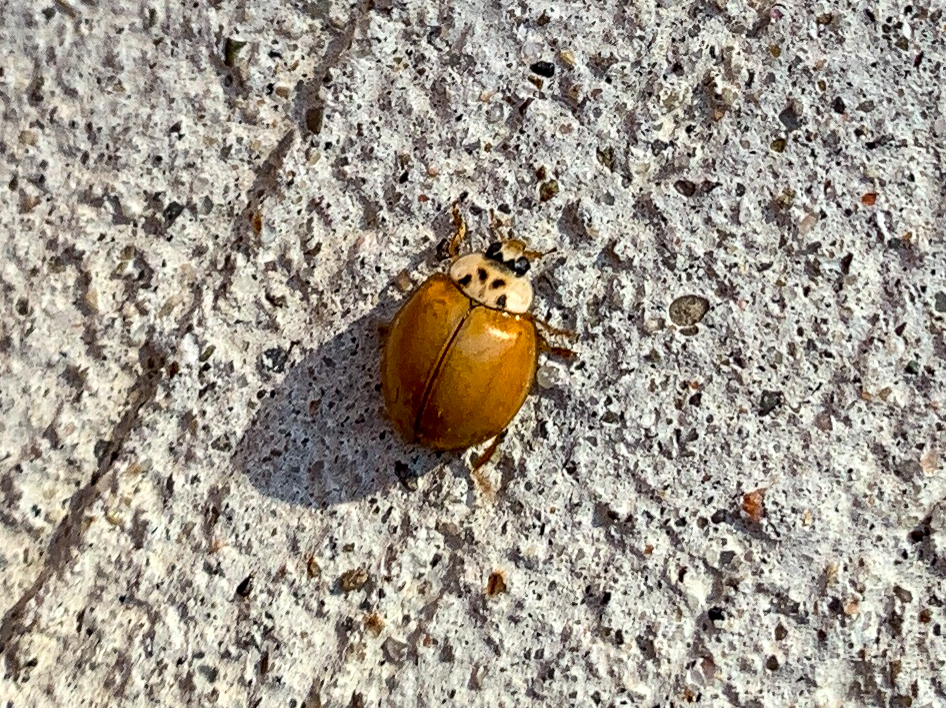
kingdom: Animalia
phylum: Arthropoda
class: Insecta
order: Coleoptera
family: Coccinellidae
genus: Harmonia
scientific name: Harmonia axyridis
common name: Harlequin ladybird
